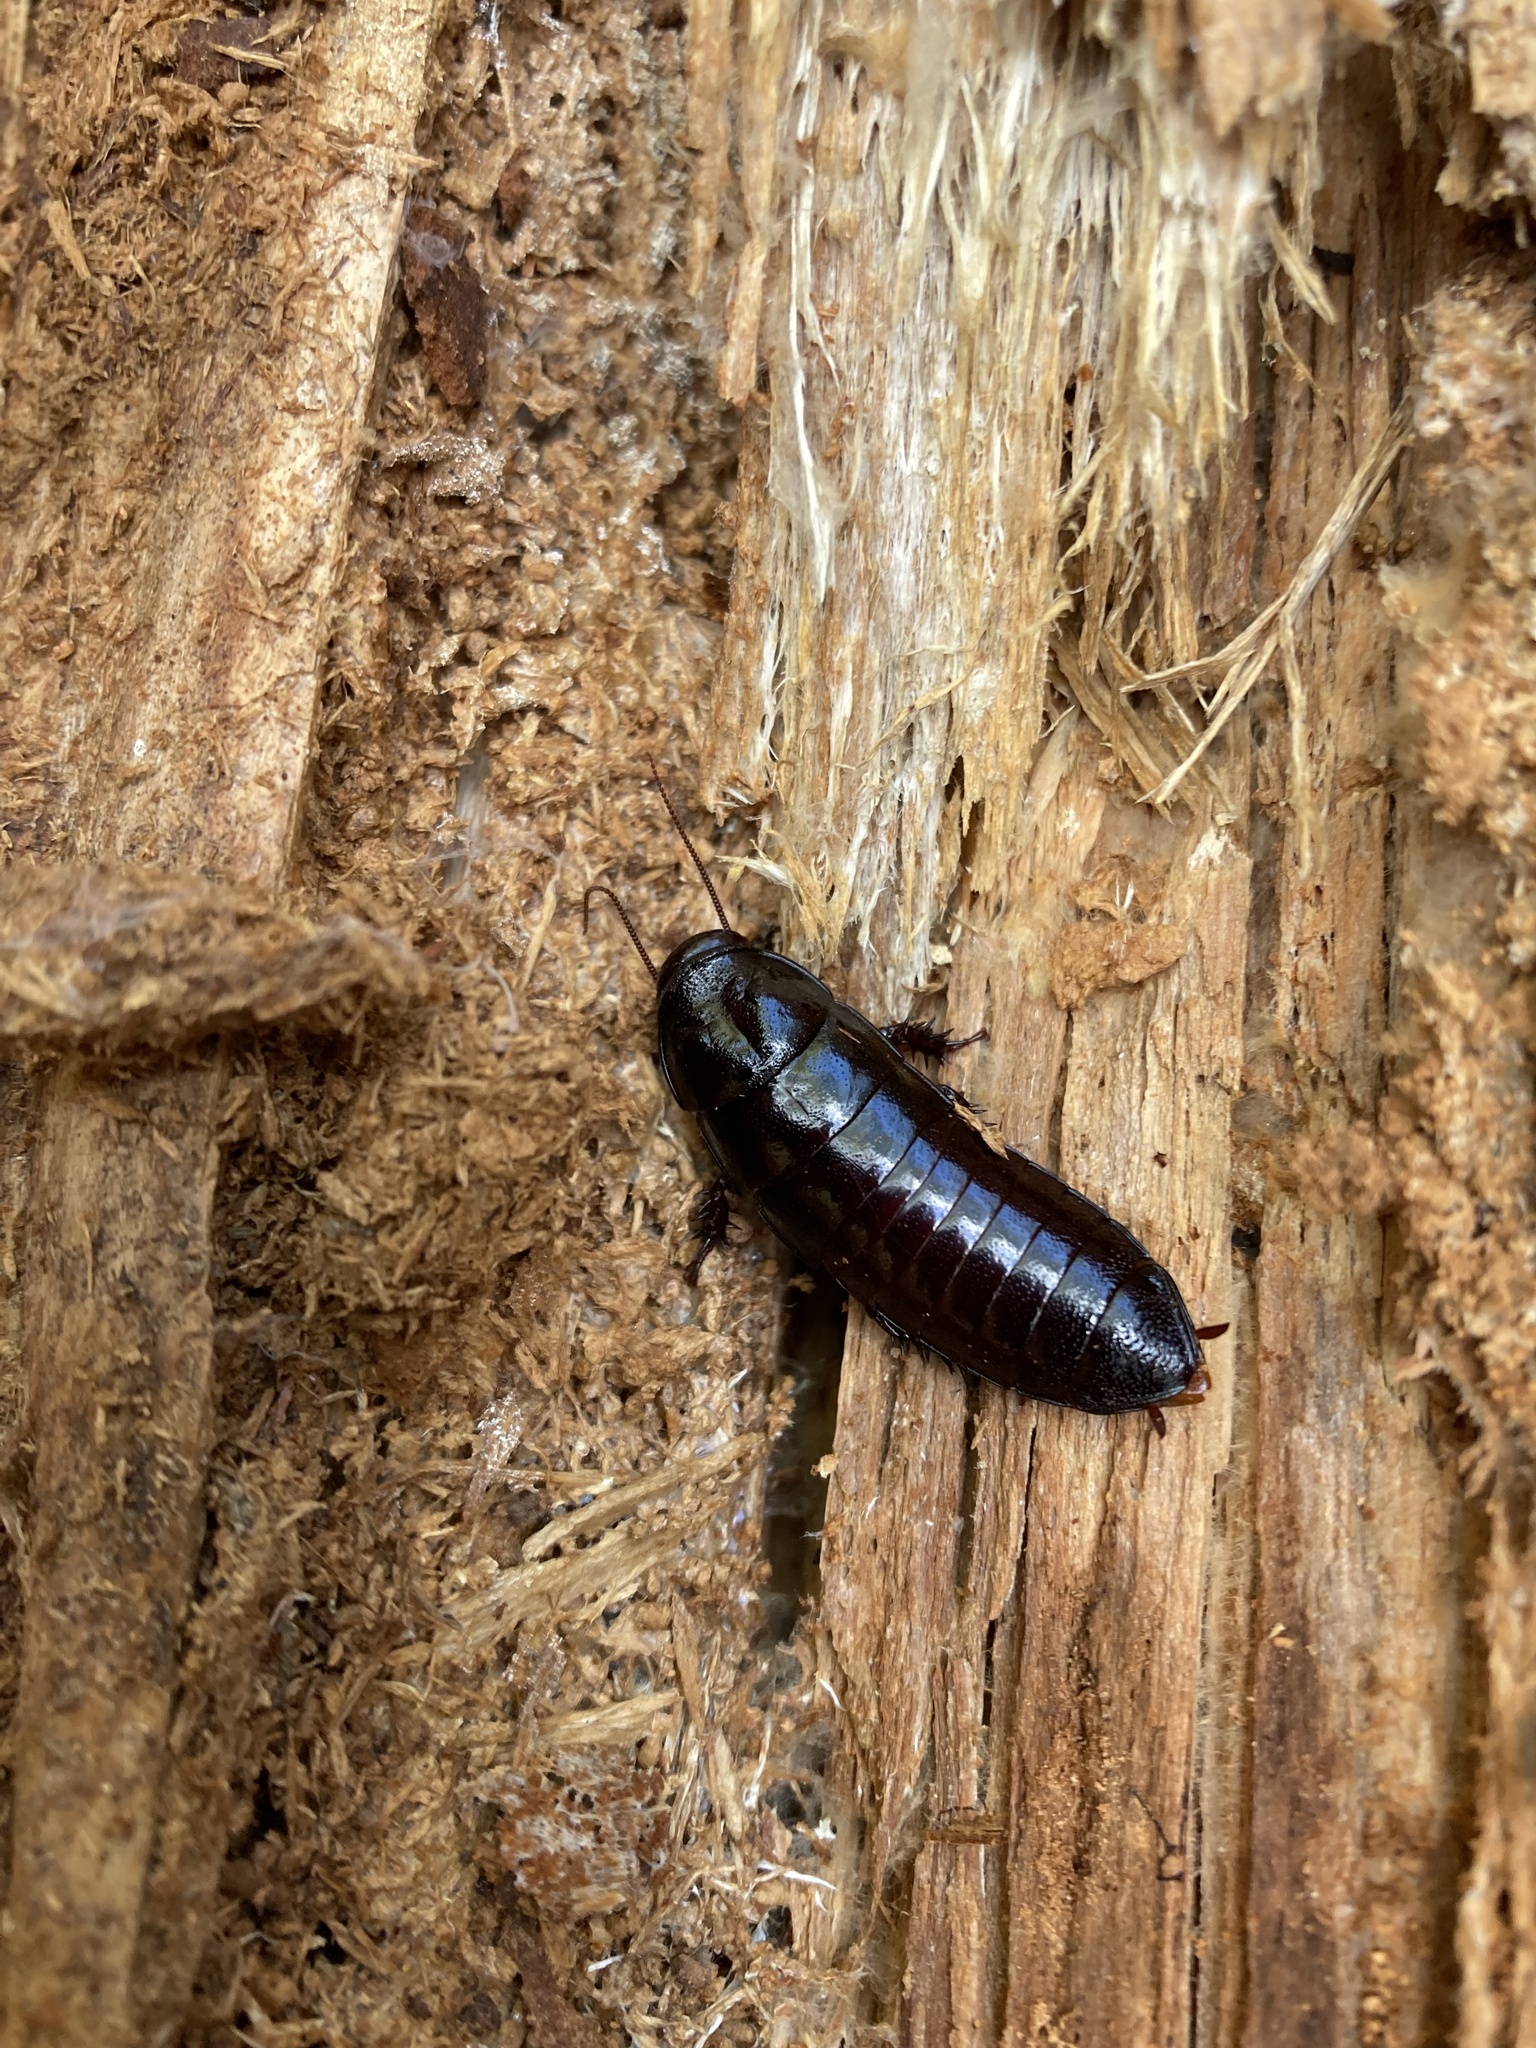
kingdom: Animalia
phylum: Arthropoda
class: Insecta
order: Blattodea
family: Cryptocercidae
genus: Cryptocercus
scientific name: Cryptocercus clevelandi
